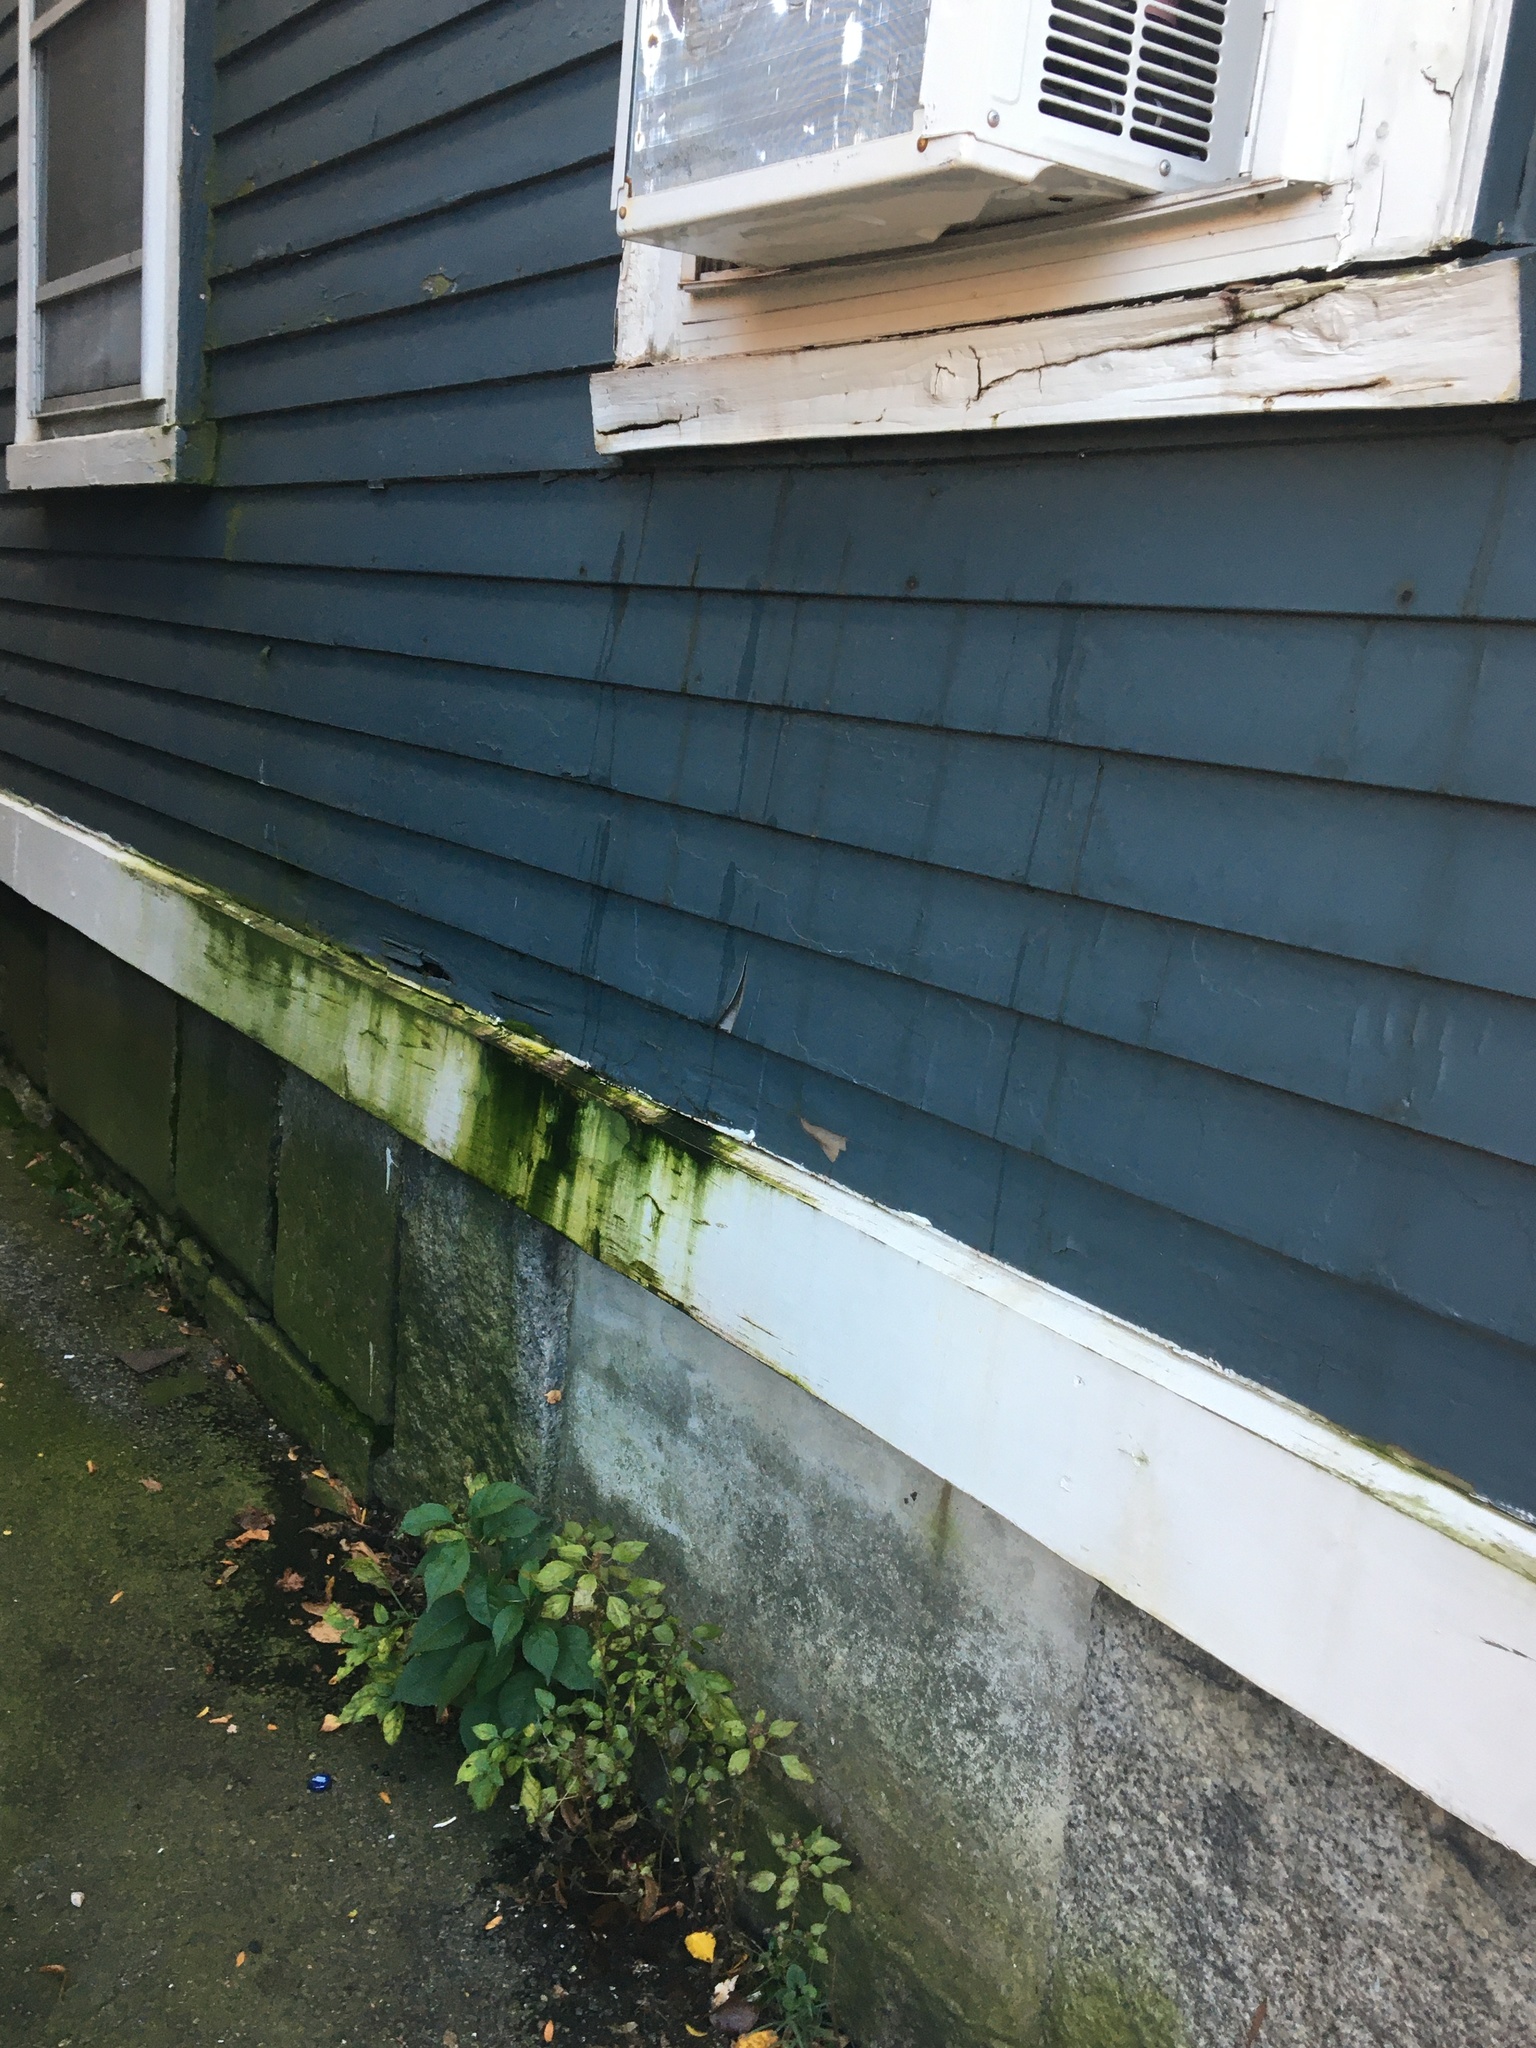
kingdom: Plantae
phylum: Tracheophyta
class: Magnoliopsida
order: Solanales
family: Solanaceae
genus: Solanum
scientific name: Solanum emulans
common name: Eastern black nightshade
